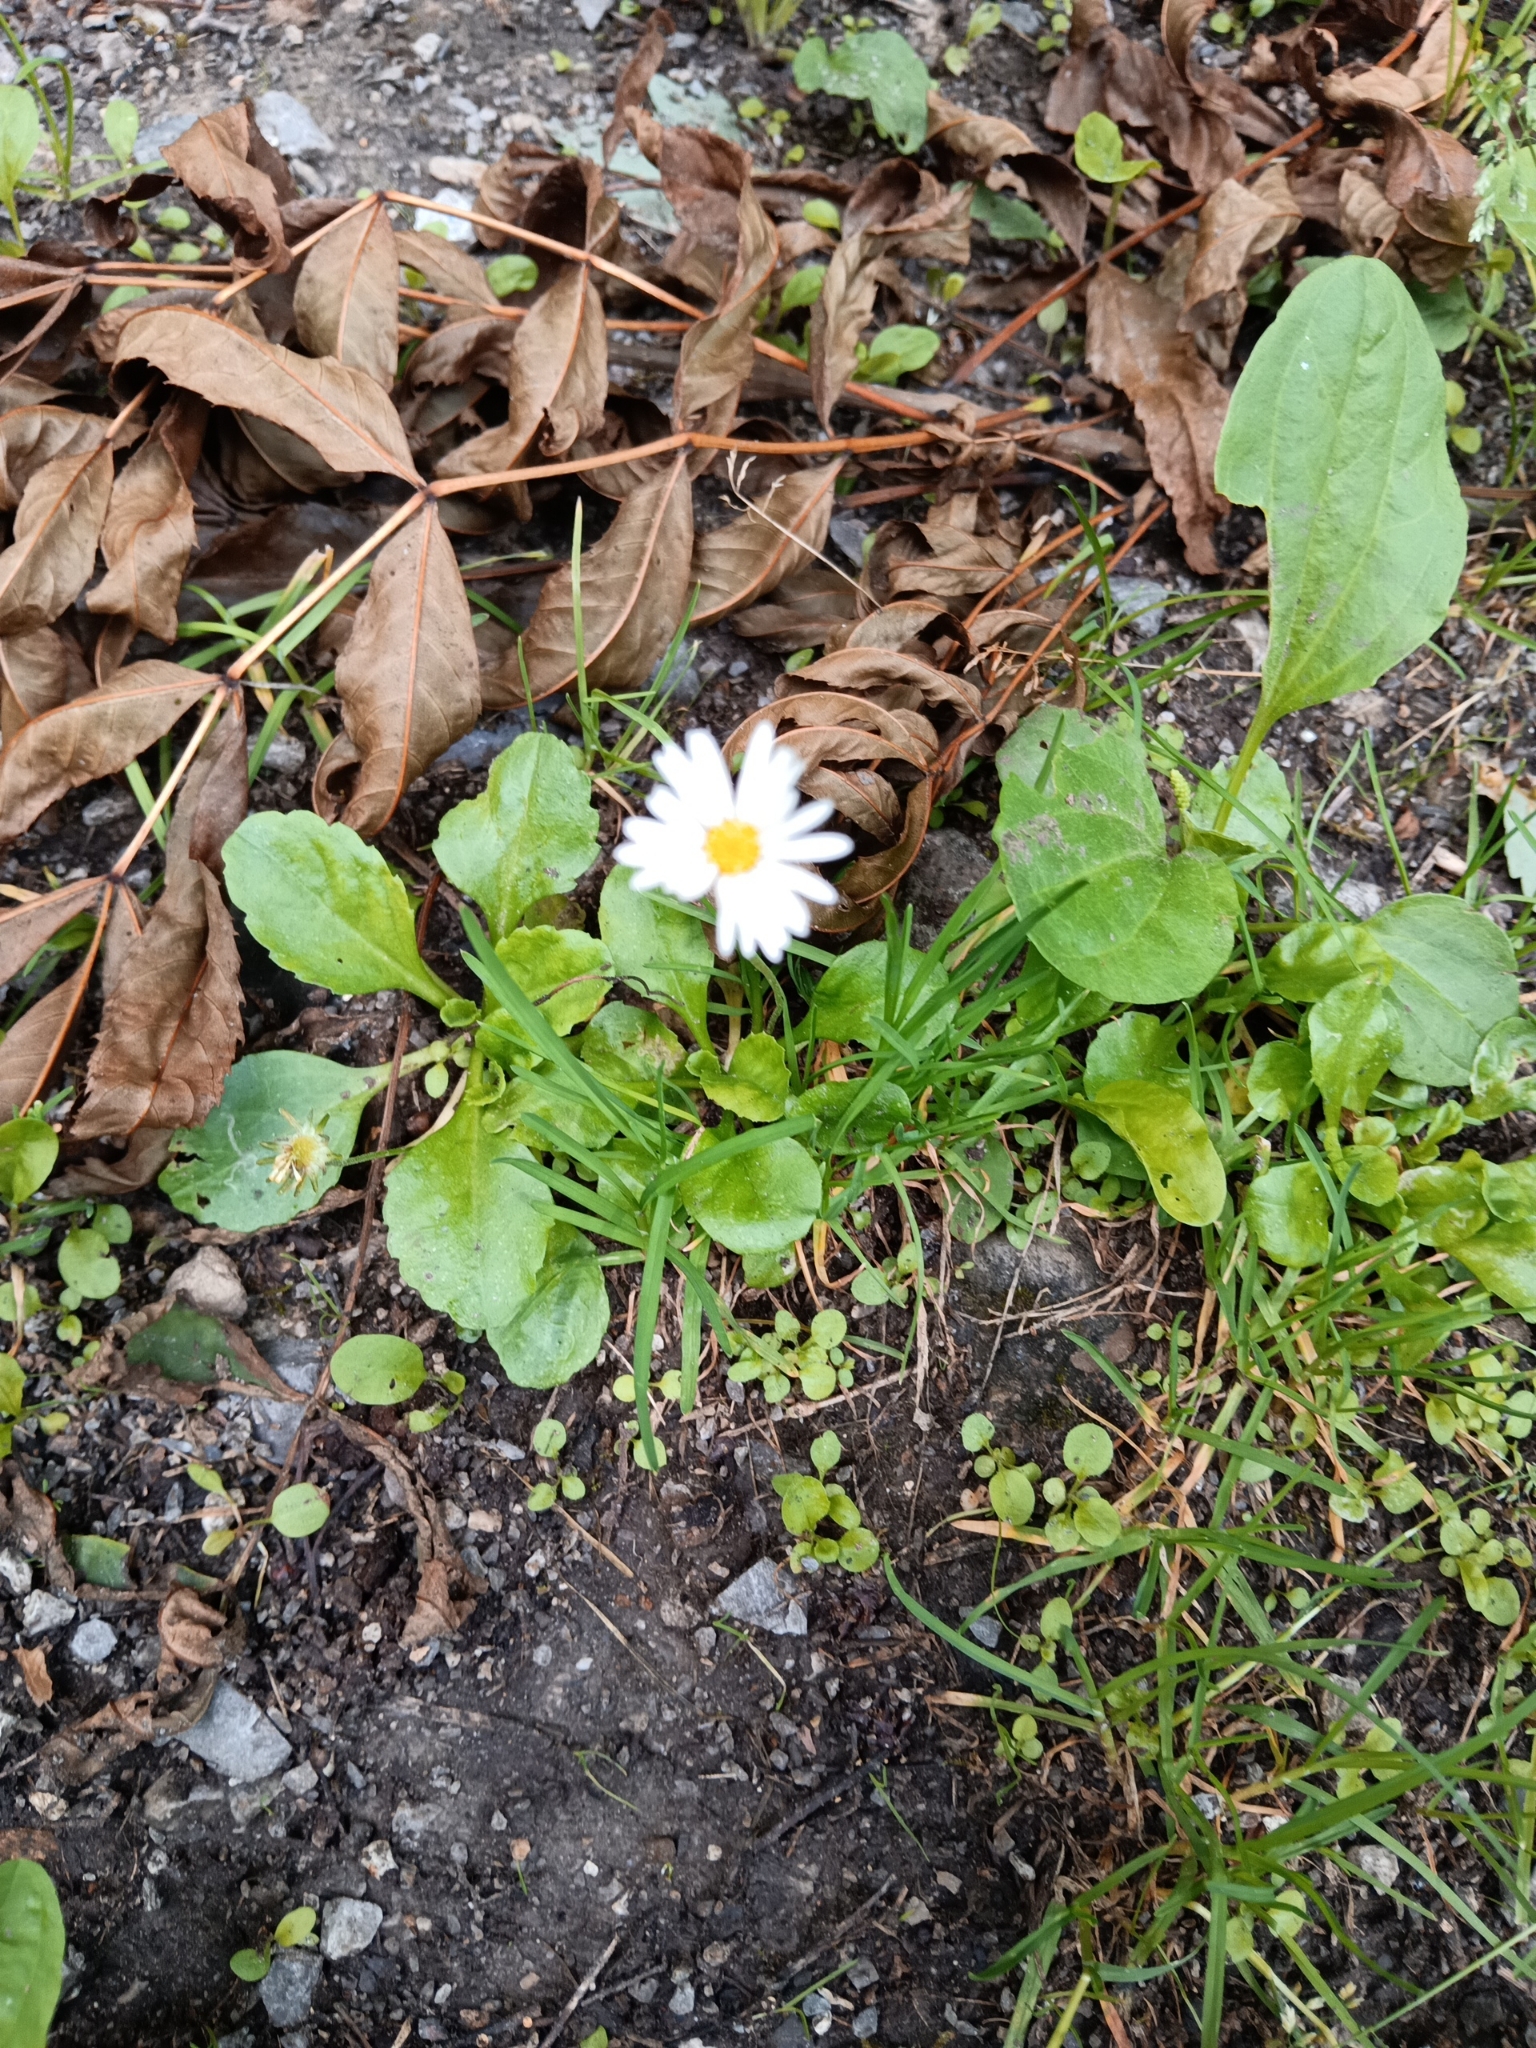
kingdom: Plantae
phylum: Tracheophyta
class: Magnoliopsida
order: Asterales
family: Asteraceae
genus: Bellis
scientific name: Bellis perennis
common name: Lawndaisy
